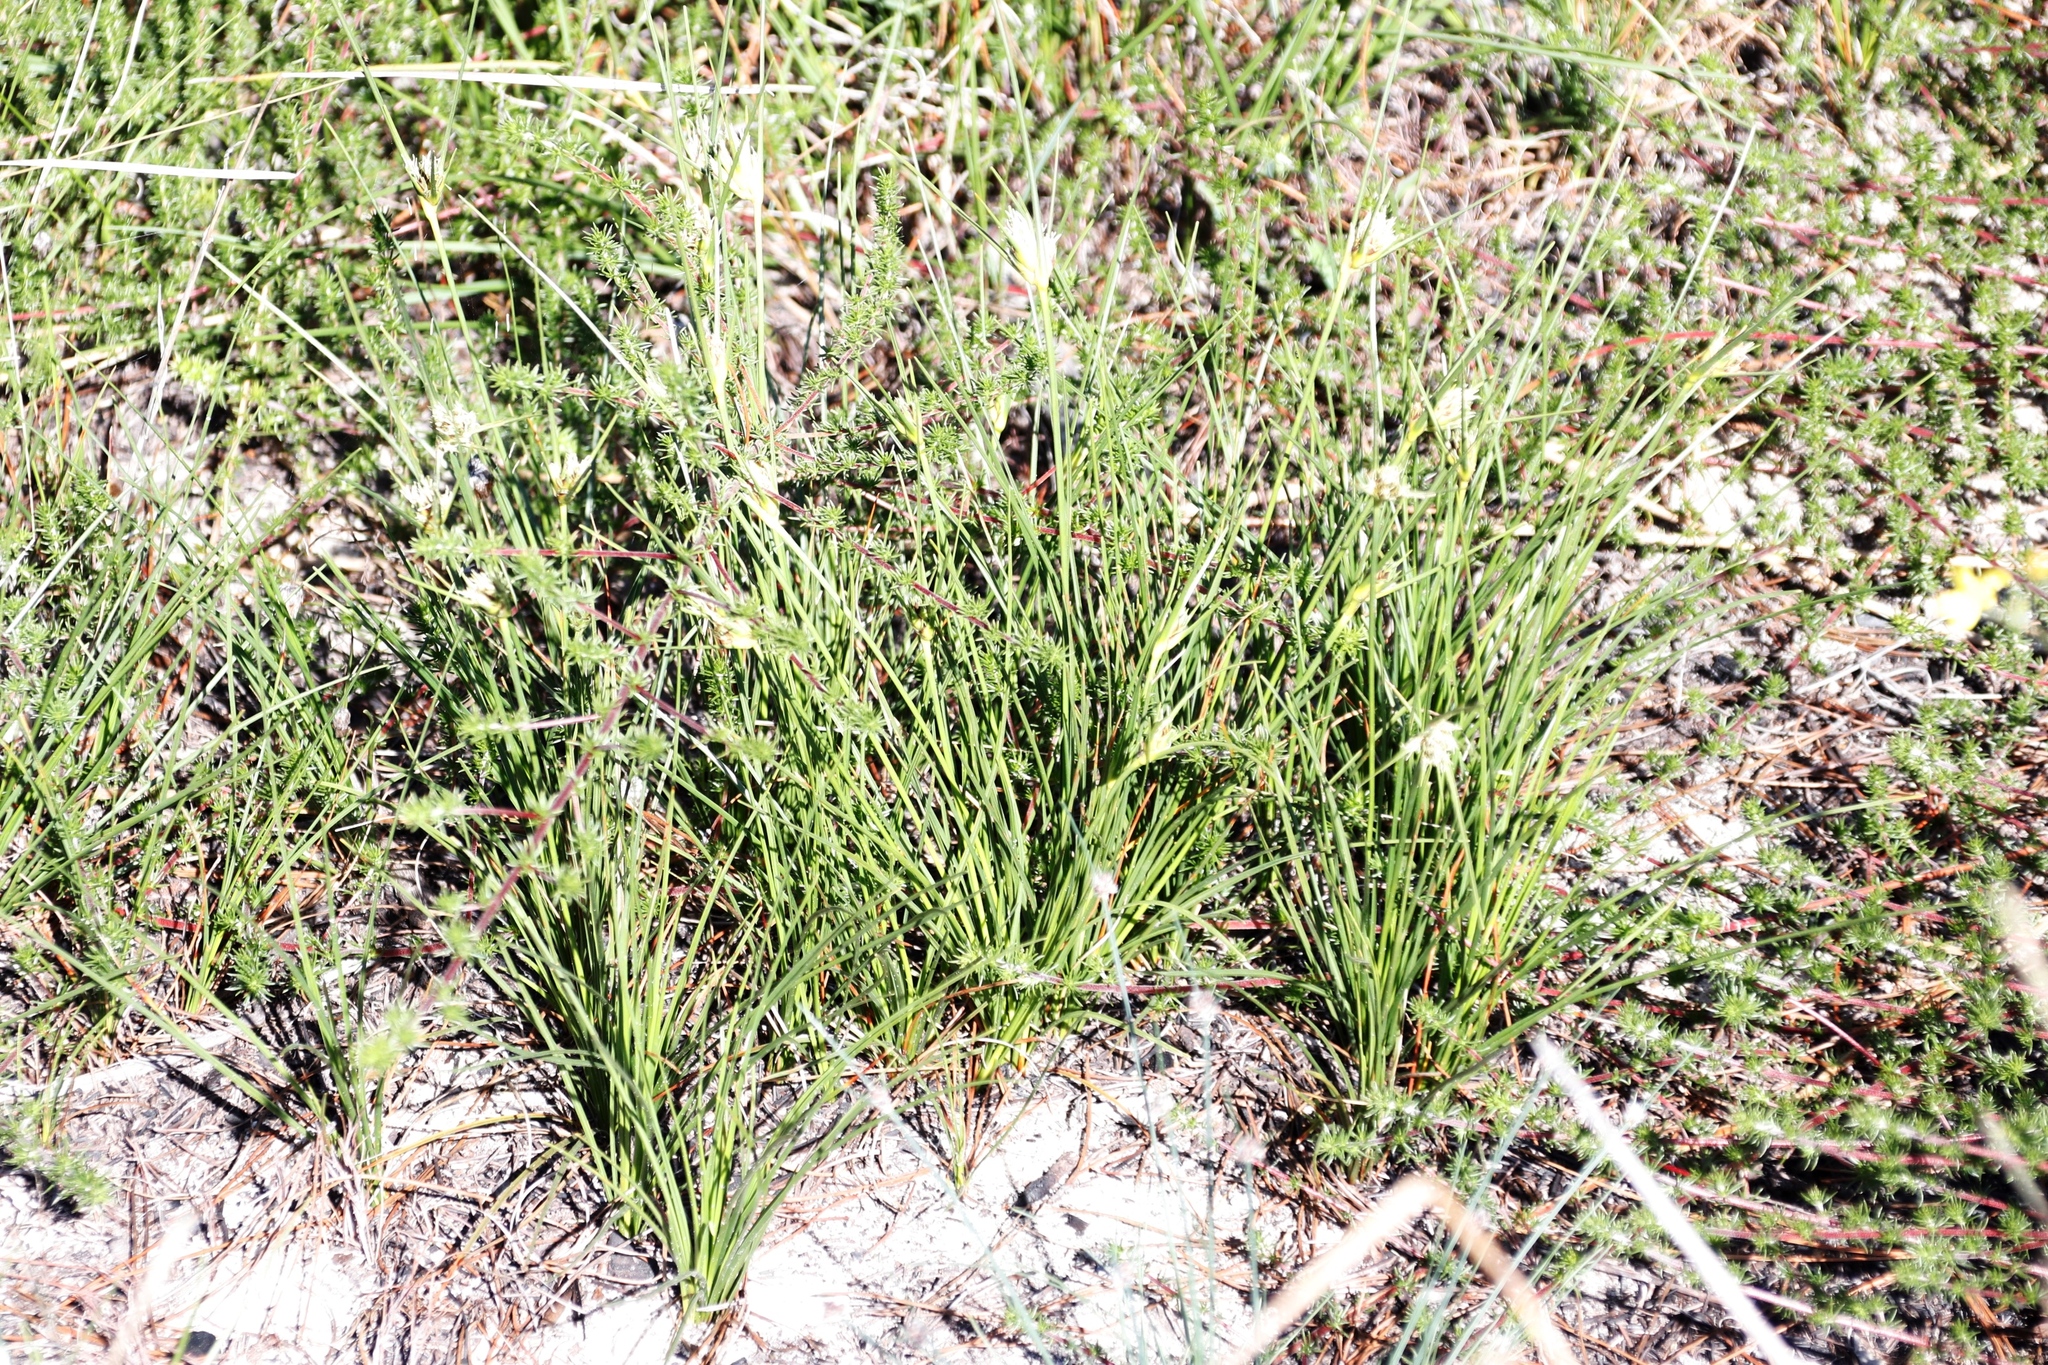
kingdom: Plantae
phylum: Tracheophyta
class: Liliopsida
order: Poales
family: Cyperaceae
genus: Schoenus
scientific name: Schoenus compar
